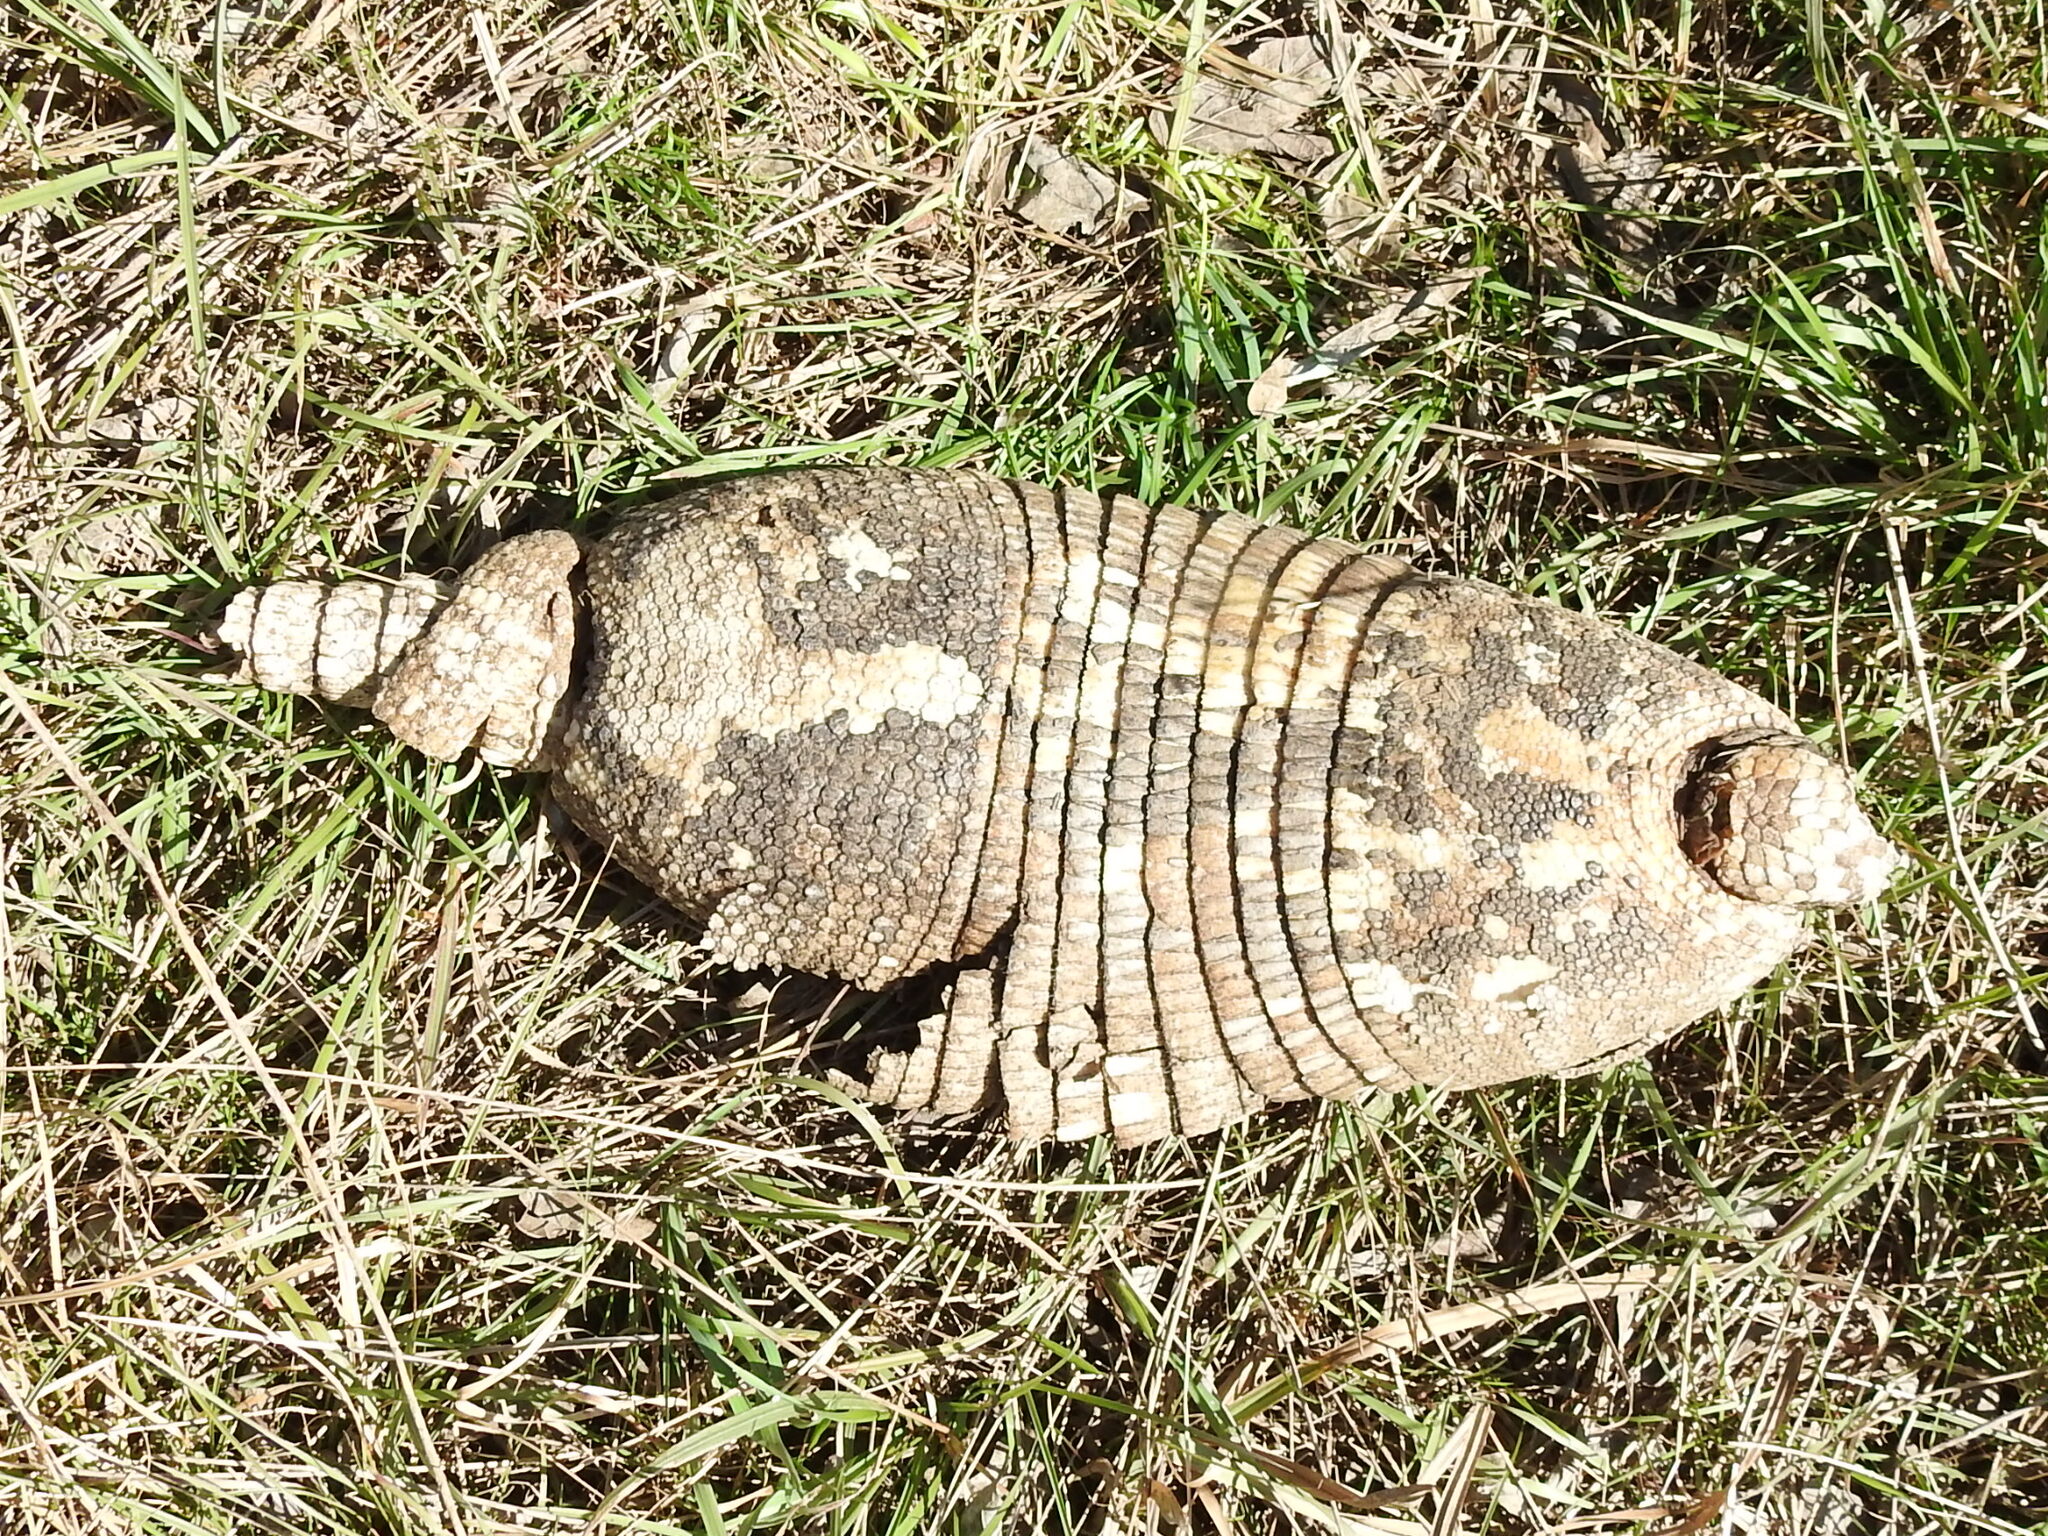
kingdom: Animalia
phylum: Chordata
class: Mammalia
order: Cingulata
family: Dasypodidae
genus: Dasypus
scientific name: Dasypus novemcinctus
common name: Nine-banded armadillo
